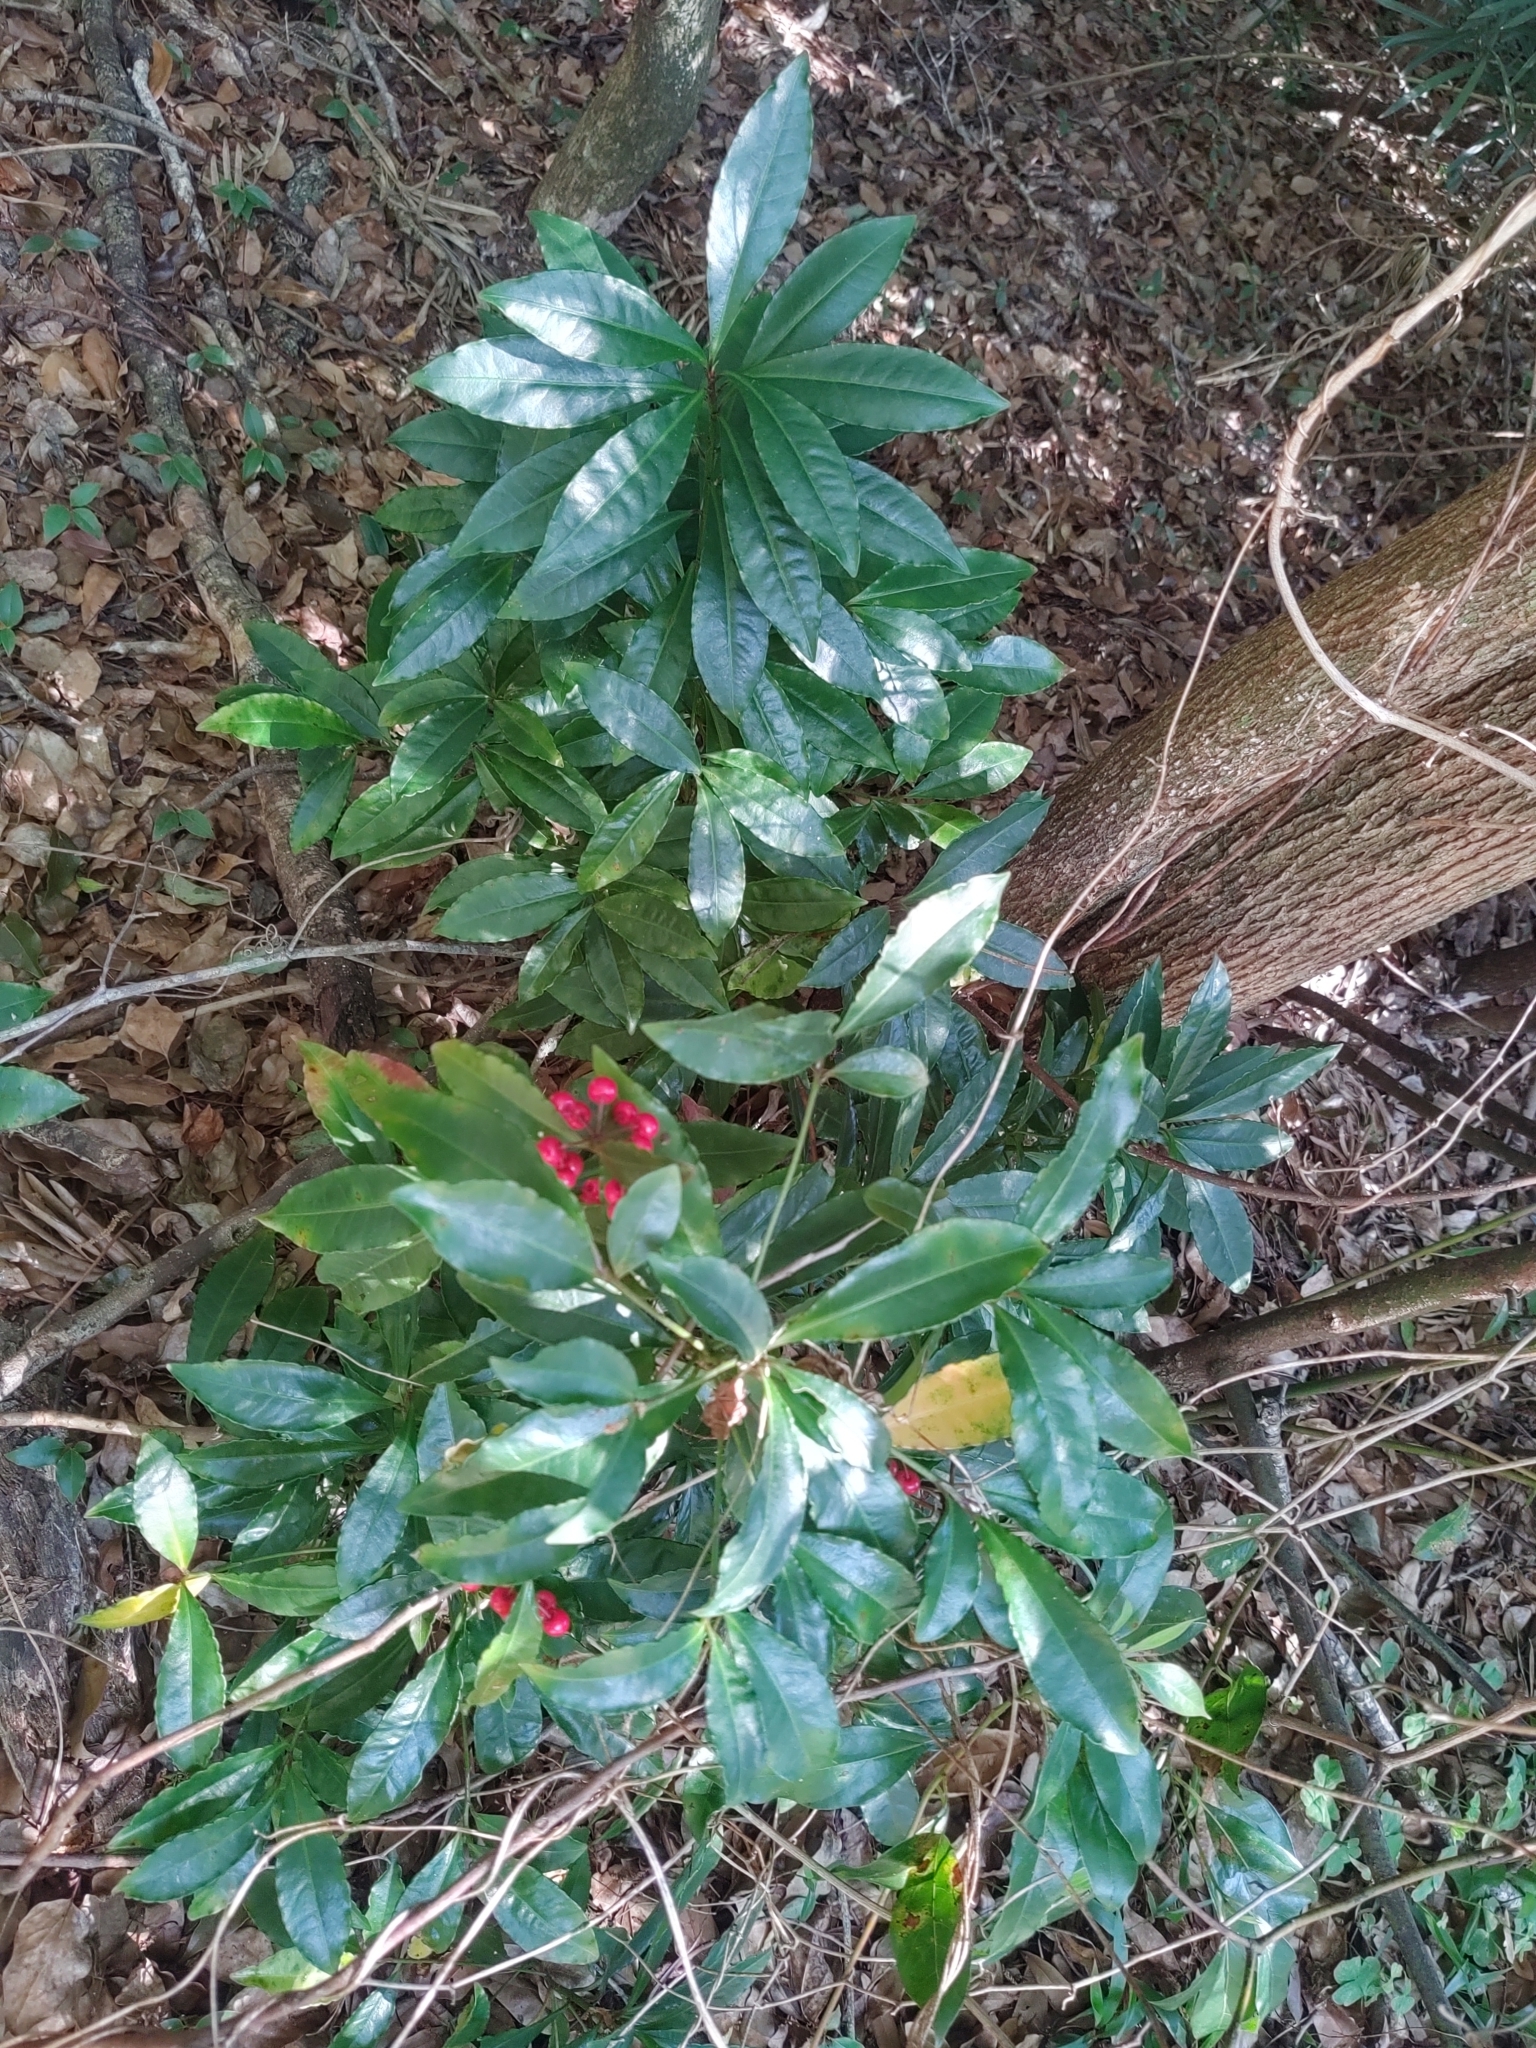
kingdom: Plantae
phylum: Tracheophyta
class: Magnoliopsida
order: Ericales
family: Primulaceae
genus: Ardisia
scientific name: Ardisia crenata
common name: Hen's eyes
